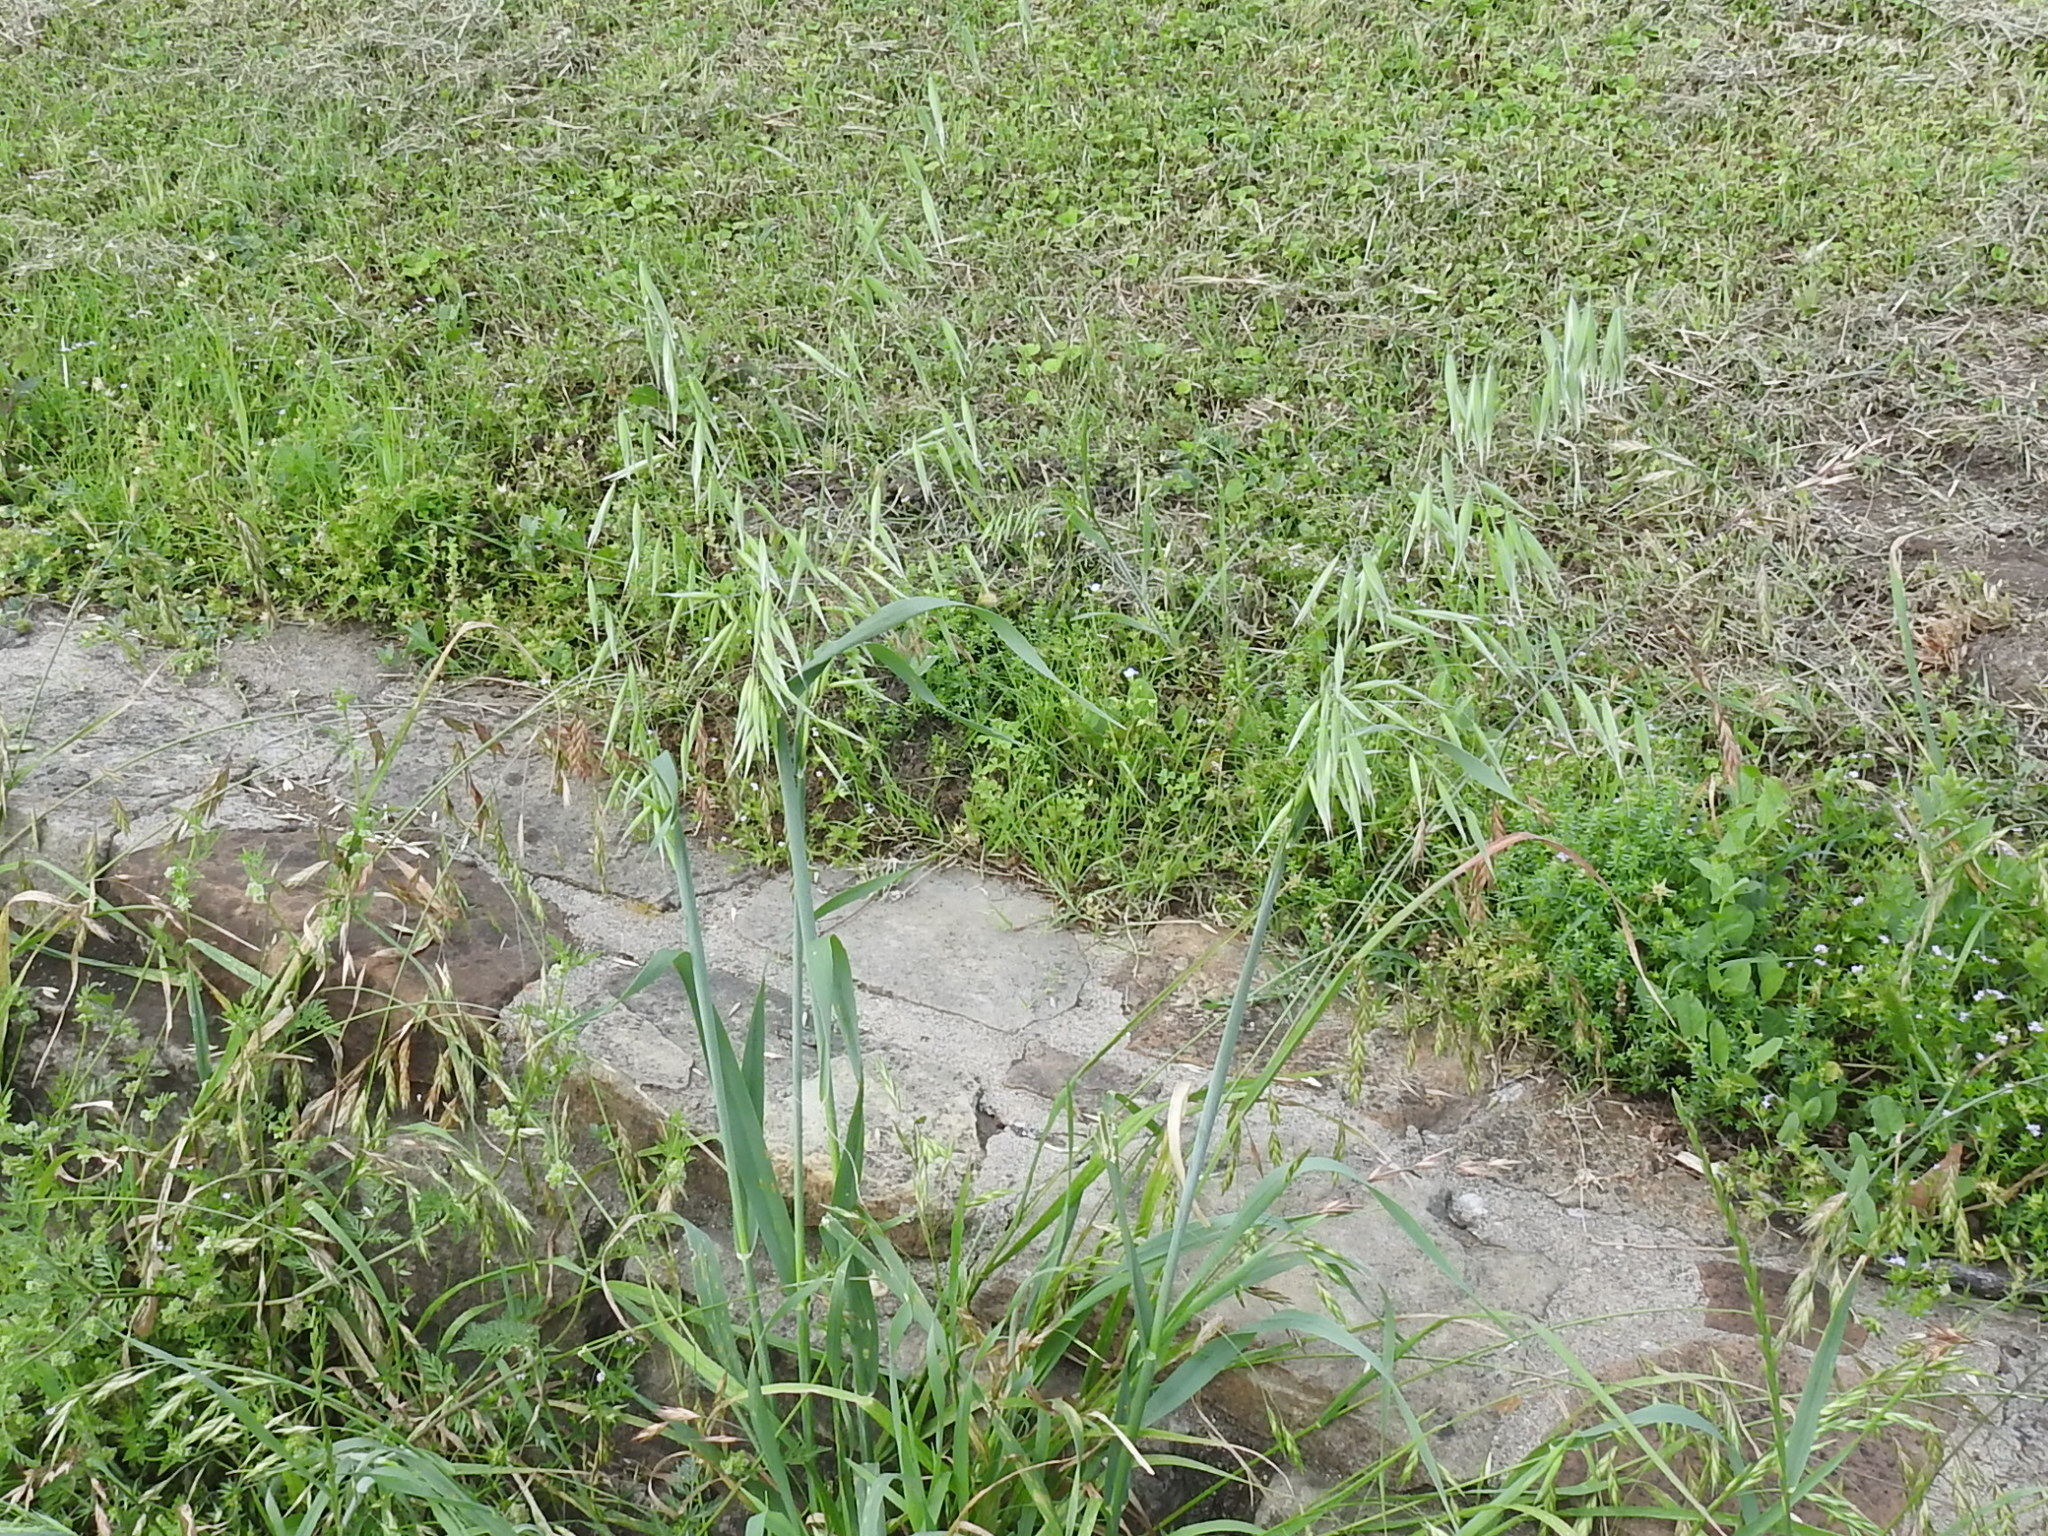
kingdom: Plantae
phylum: Tracheophyta
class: Liliopsida
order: Poales
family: Poaceae
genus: Avena
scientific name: Avena sativa
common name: Oat
